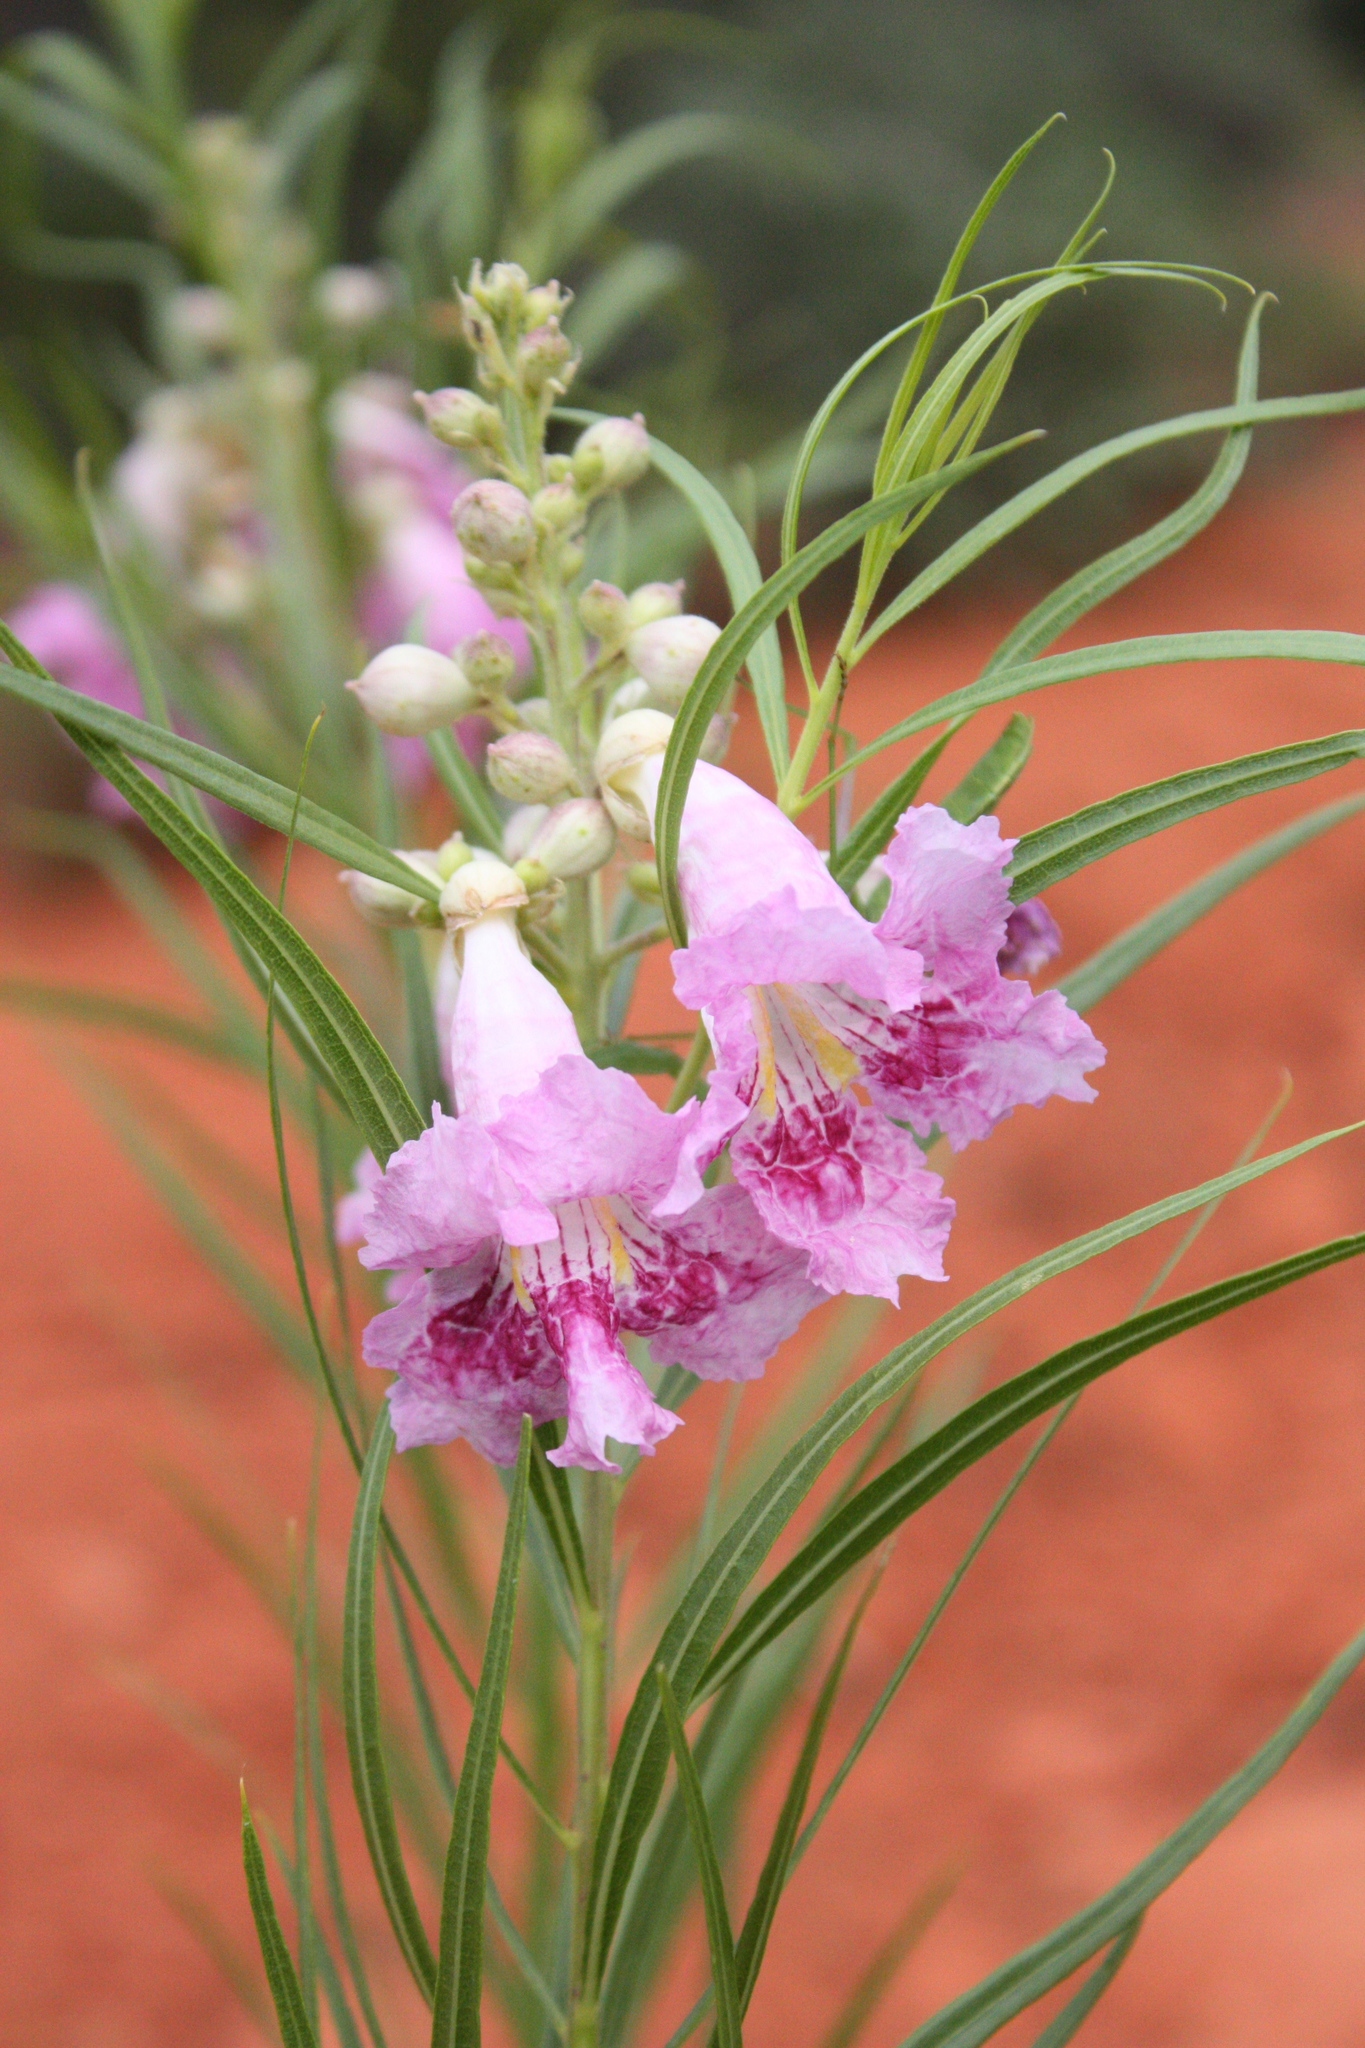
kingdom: Plantae
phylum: Tracheophyta
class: Magnoliopsida
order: Lamiales
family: Bignoniaceae
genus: Chilopsis
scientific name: Chilopsis linearis
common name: Desert-willow
